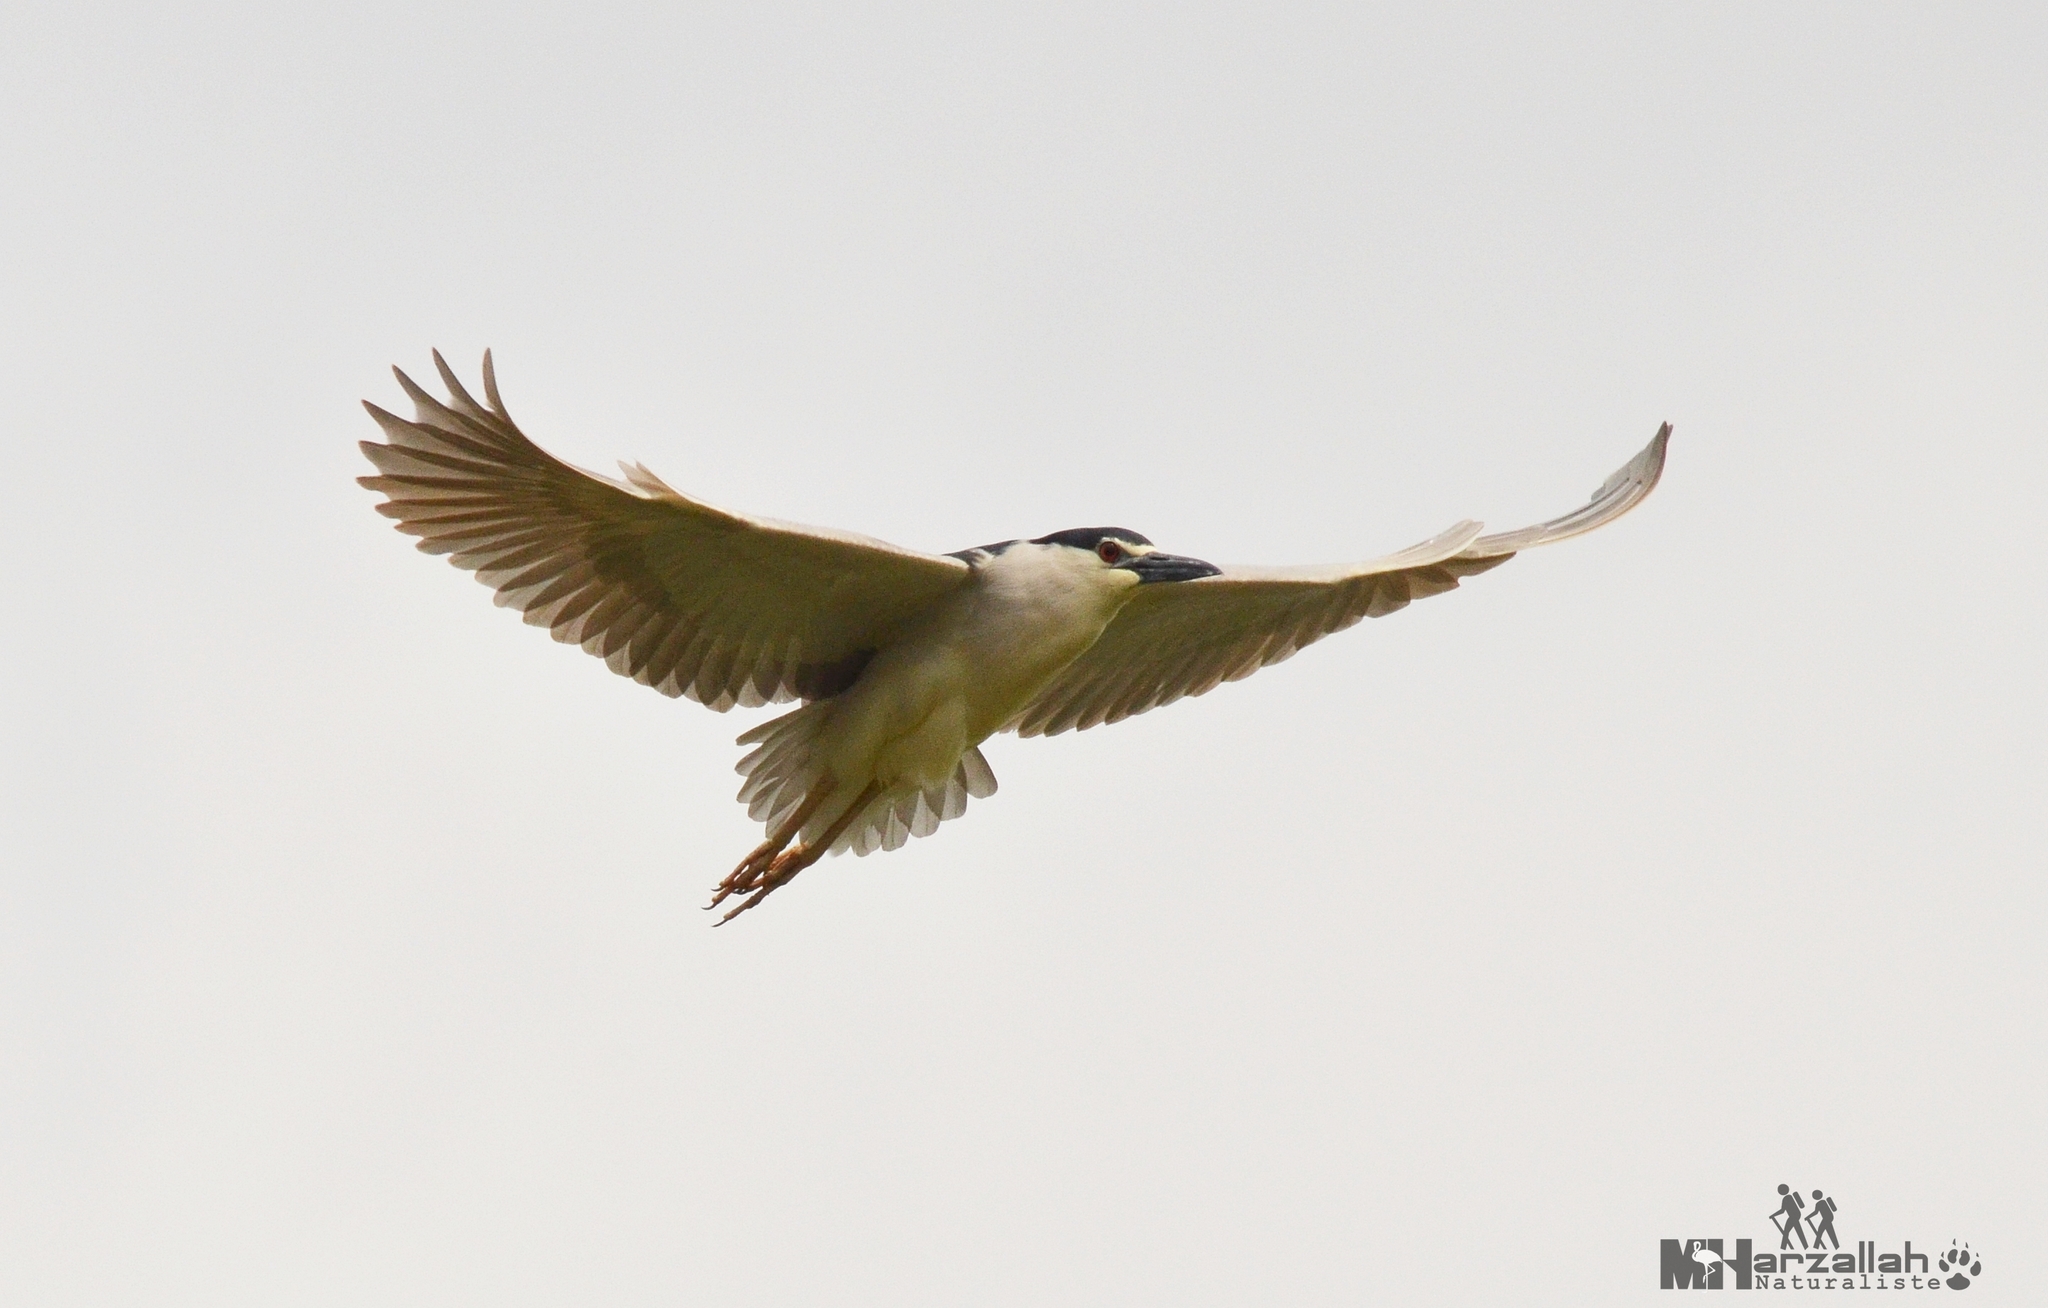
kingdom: Animalia
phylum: Chordata
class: Aves
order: Pelecaniformes
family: Ardeidae
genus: Nycticorax
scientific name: Nycticorax nycticorax
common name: Black-crowned night heron
